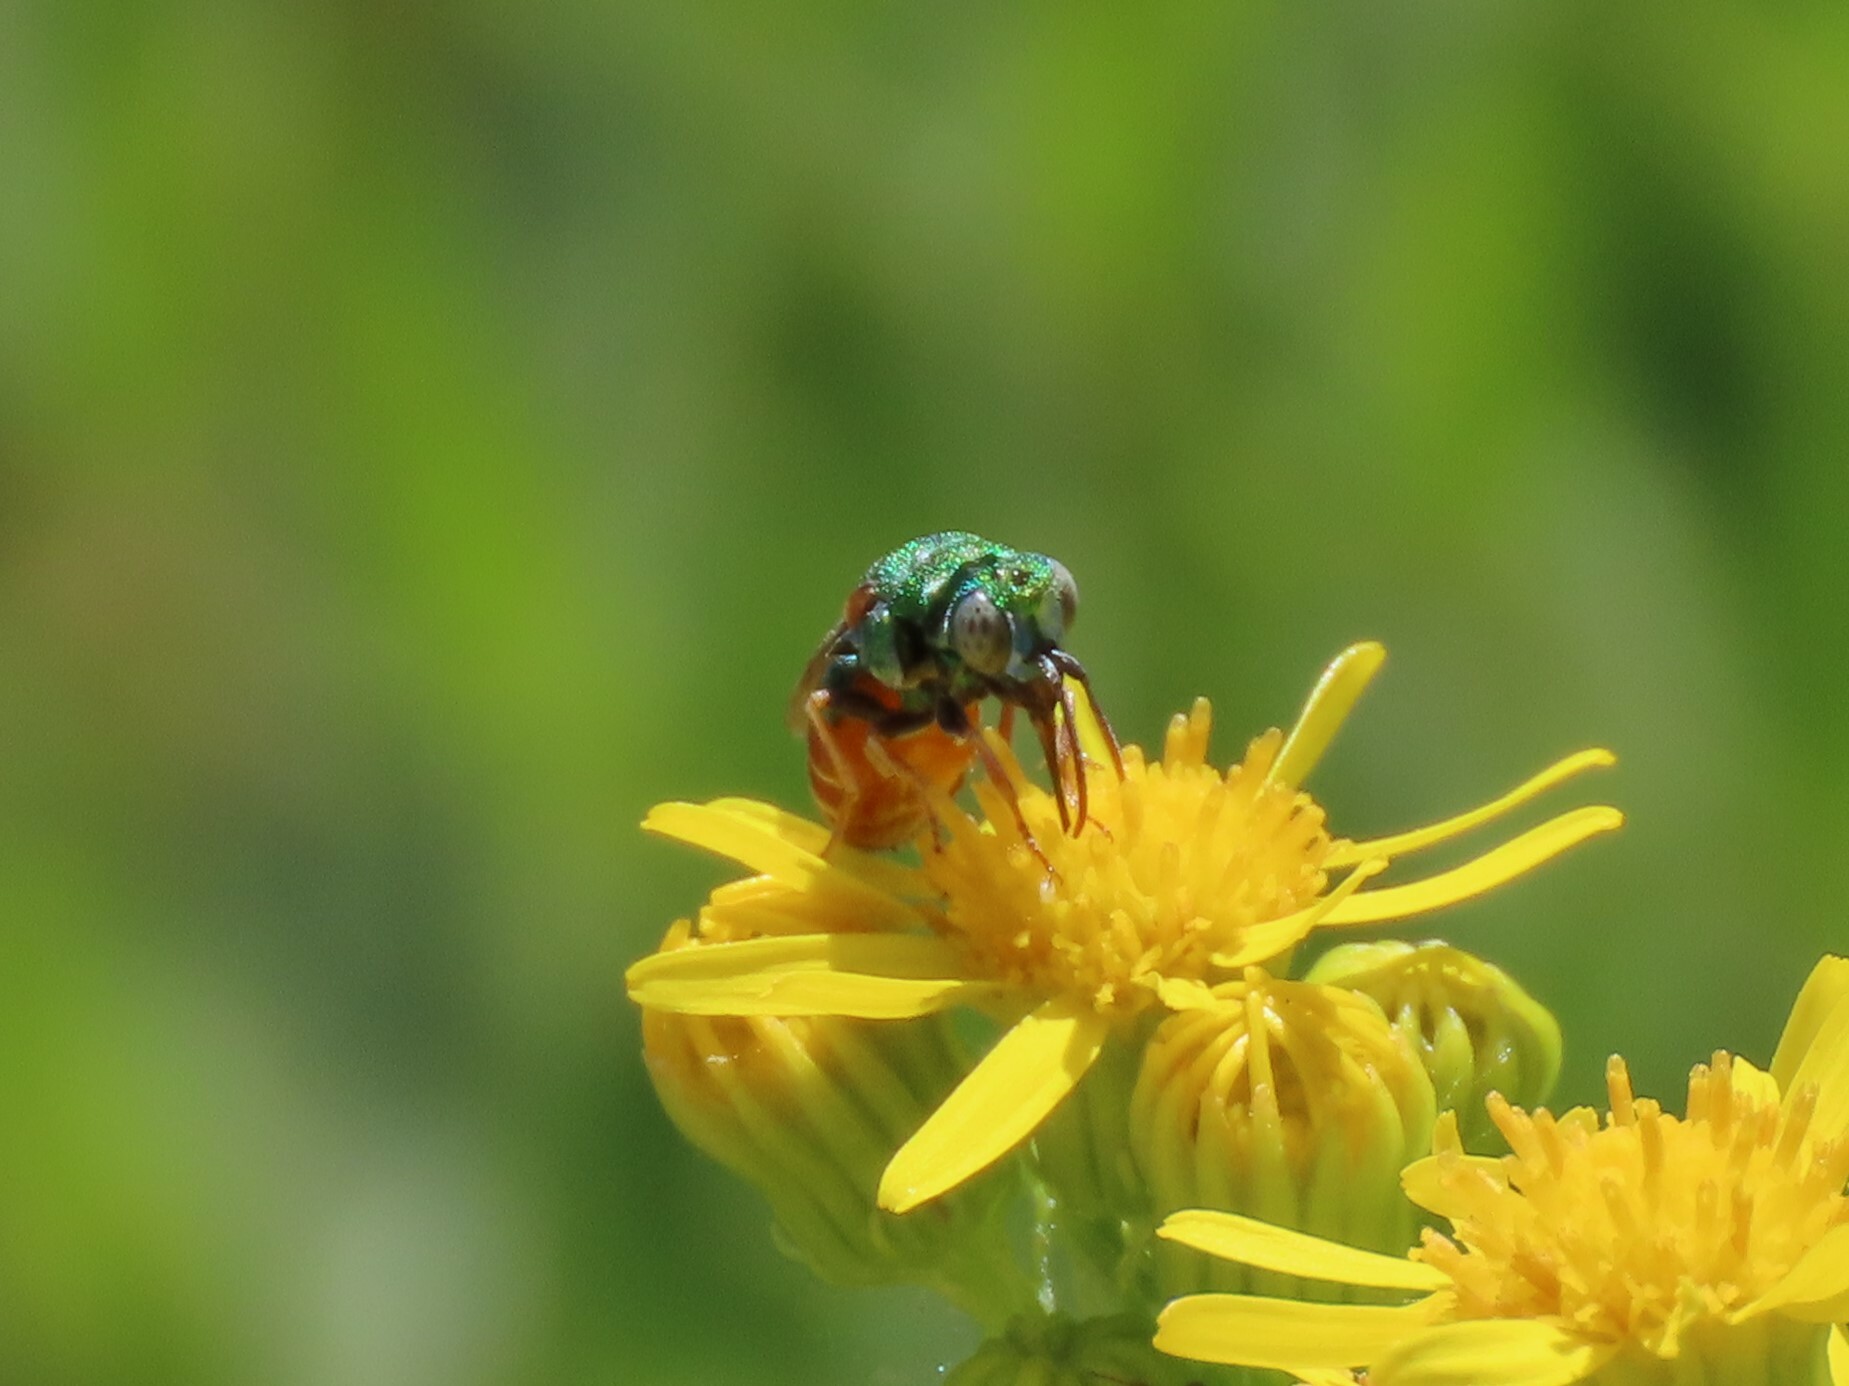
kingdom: Animalia
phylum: Arthropoda
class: Insecta
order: Hymenoptera
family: Chrysididae
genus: Parnopes
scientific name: Parnopes grandior
